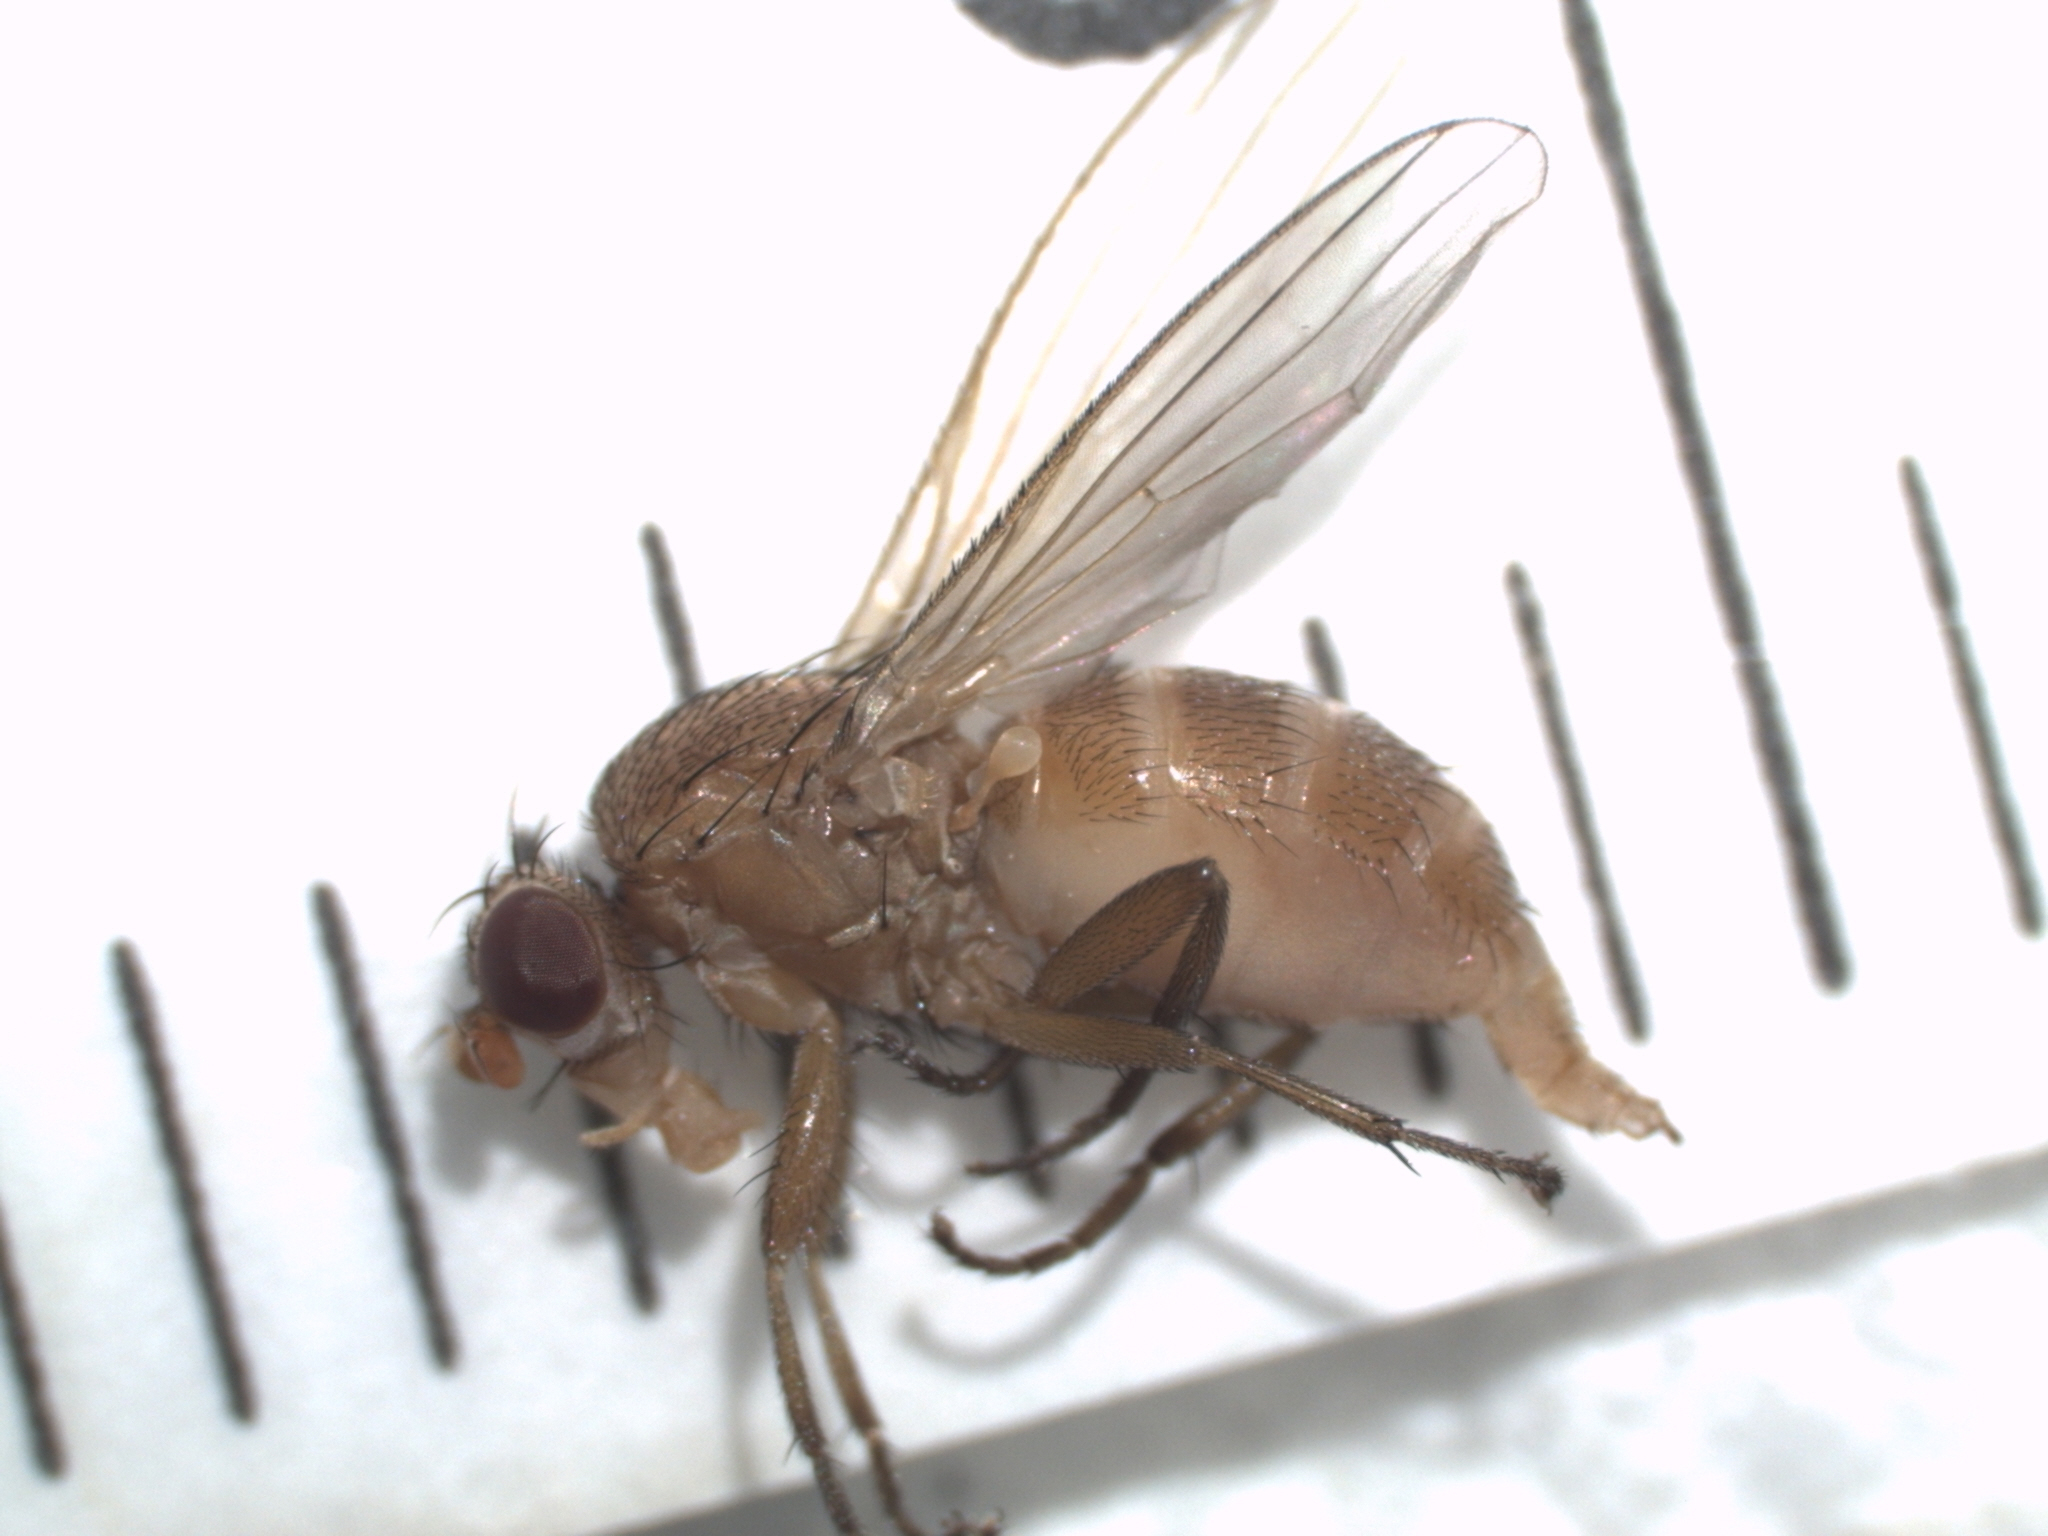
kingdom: Animalia
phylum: Arthropoda
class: Insecta
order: Diptera
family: Heleomyzidae
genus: Neoleria
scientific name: Neoleria lutea
